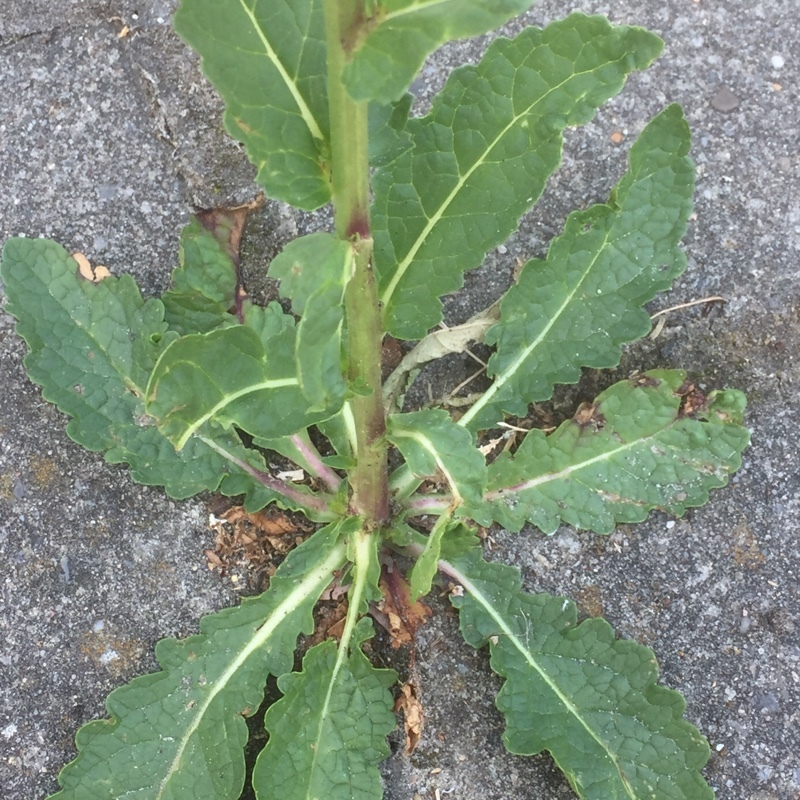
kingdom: Plantae
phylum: Tracheophyta
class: Magnoliopsida
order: Lamiales
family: Scrophulariaceae
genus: Verbascum
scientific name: Verbascum blattaria
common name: Moth mullein
